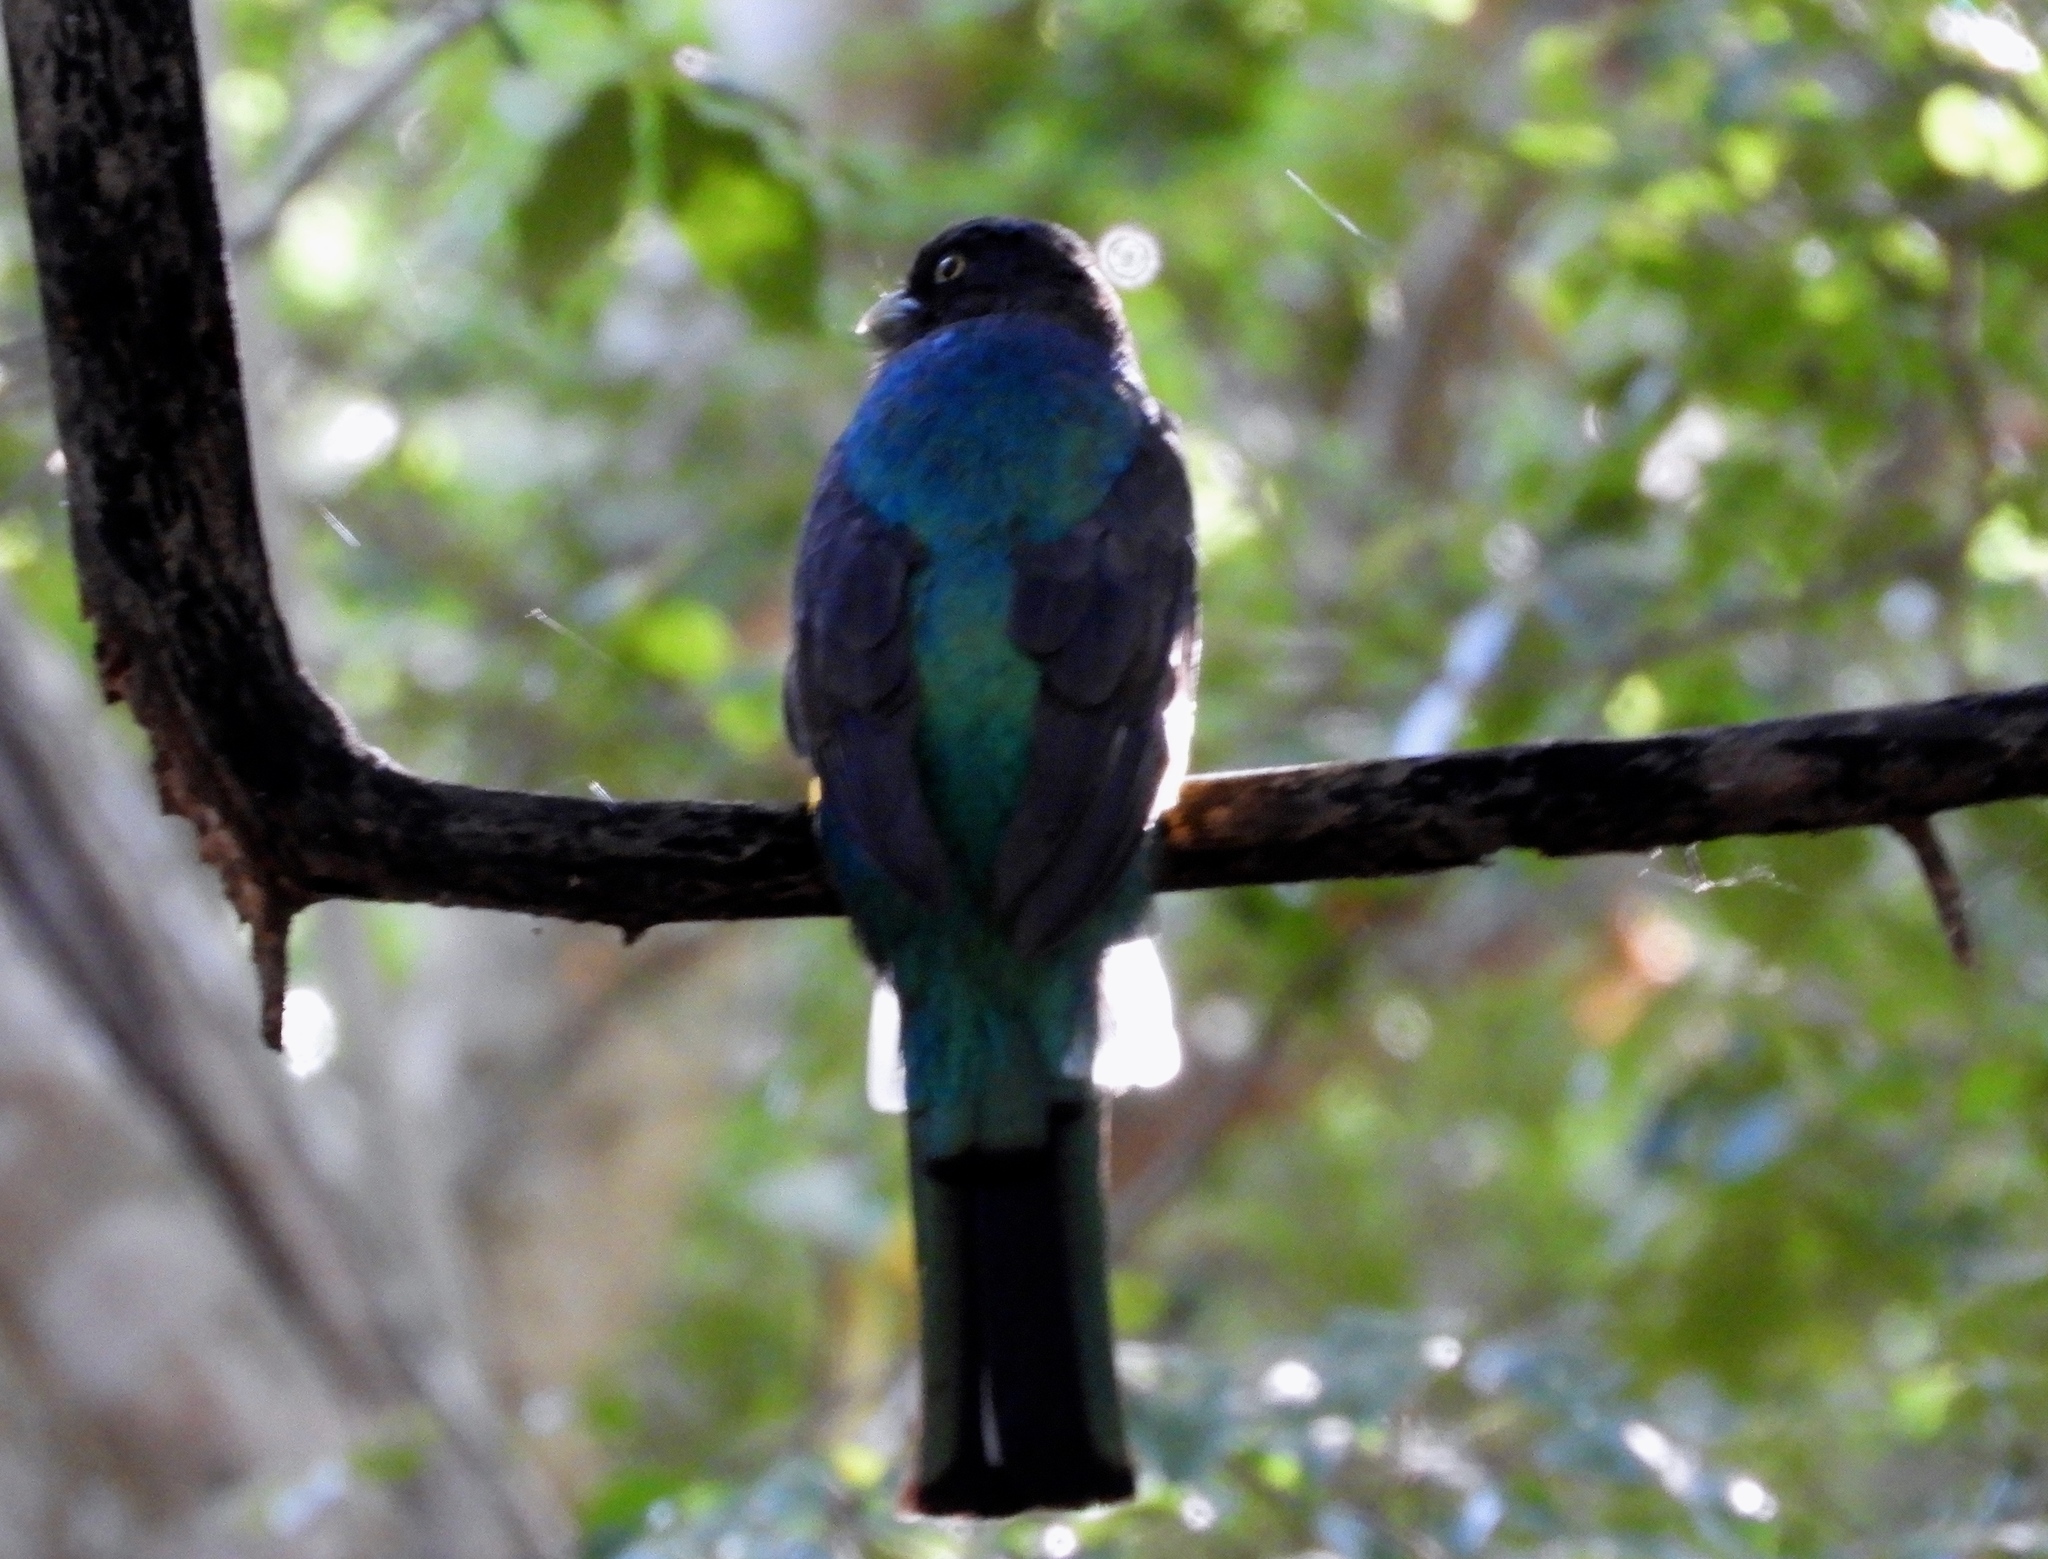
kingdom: Animalia
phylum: Chordata
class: Aves
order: Trogoniformes
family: Trogonidae
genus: Trogon
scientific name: Trogon citreolus
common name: Citreoline trogon
